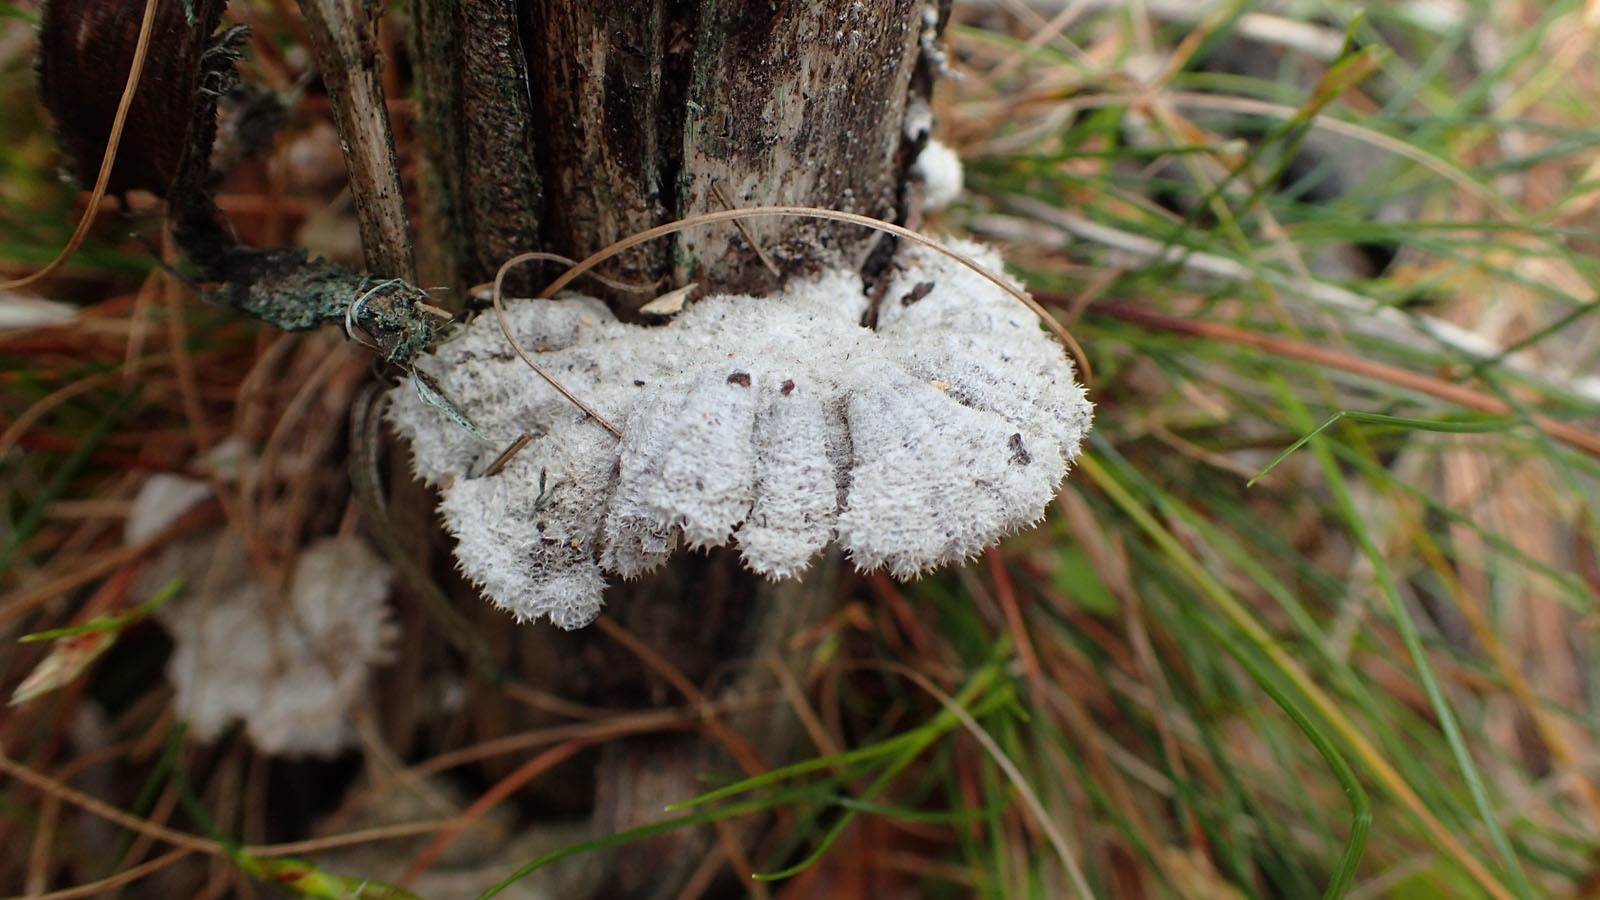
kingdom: Fungi
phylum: Basidiomycota
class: Agaricomycetes
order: Agaricales
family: Schizophyllaceae
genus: Schizophyllum
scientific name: Schizophyllum commune
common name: Common porecrust
